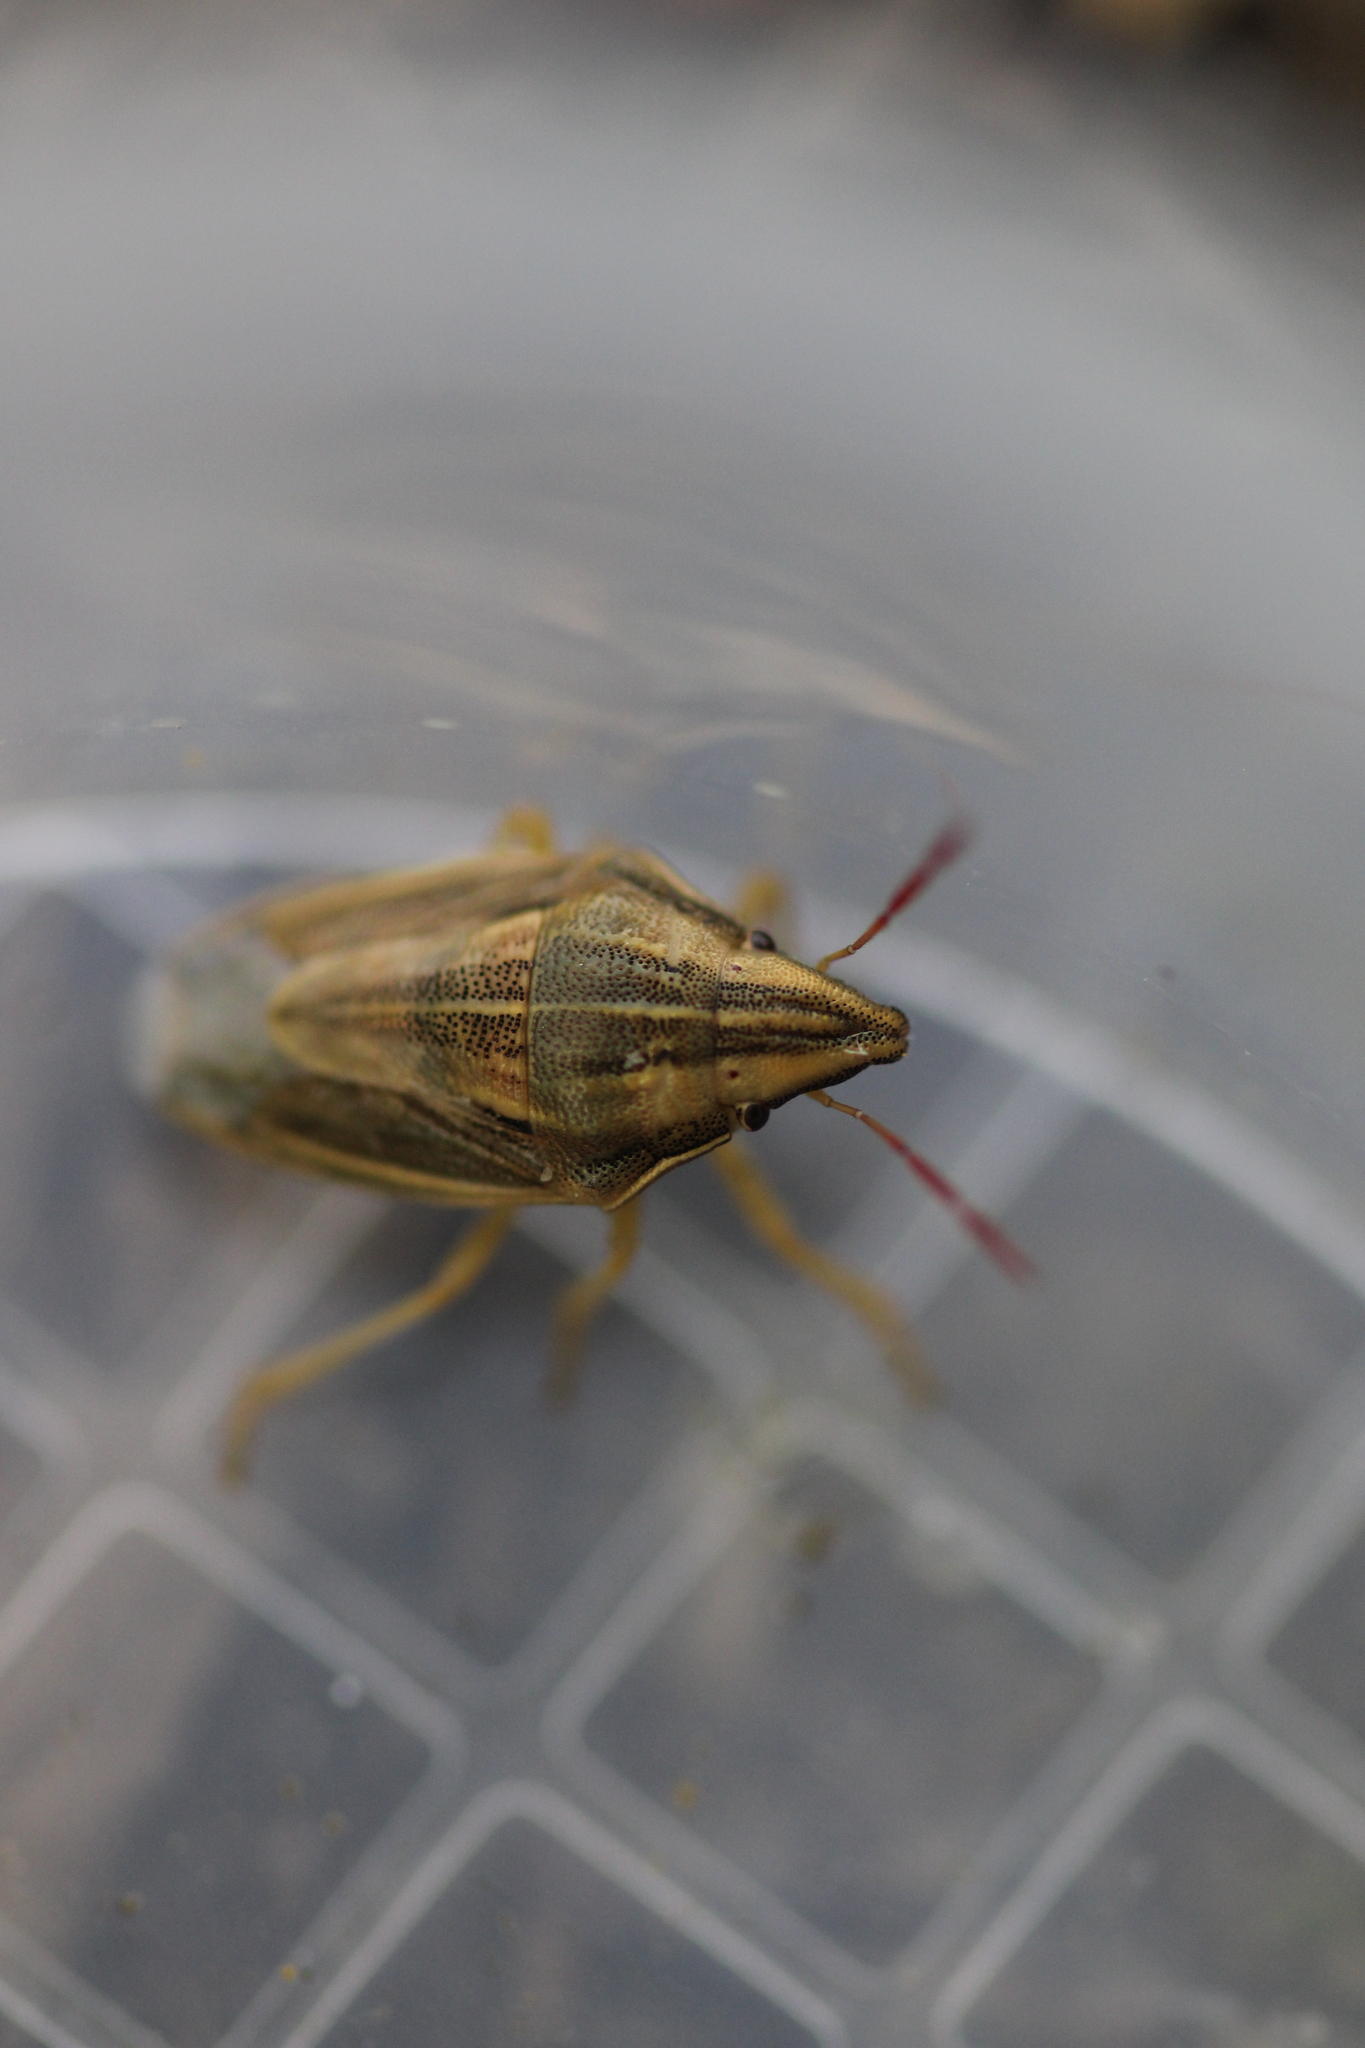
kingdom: Animalia
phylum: Arthropoda
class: Insecta
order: Hemiptera
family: Pentatomidae
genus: Aelia
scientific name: Aelia acuminata
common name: Bishop's mitre
